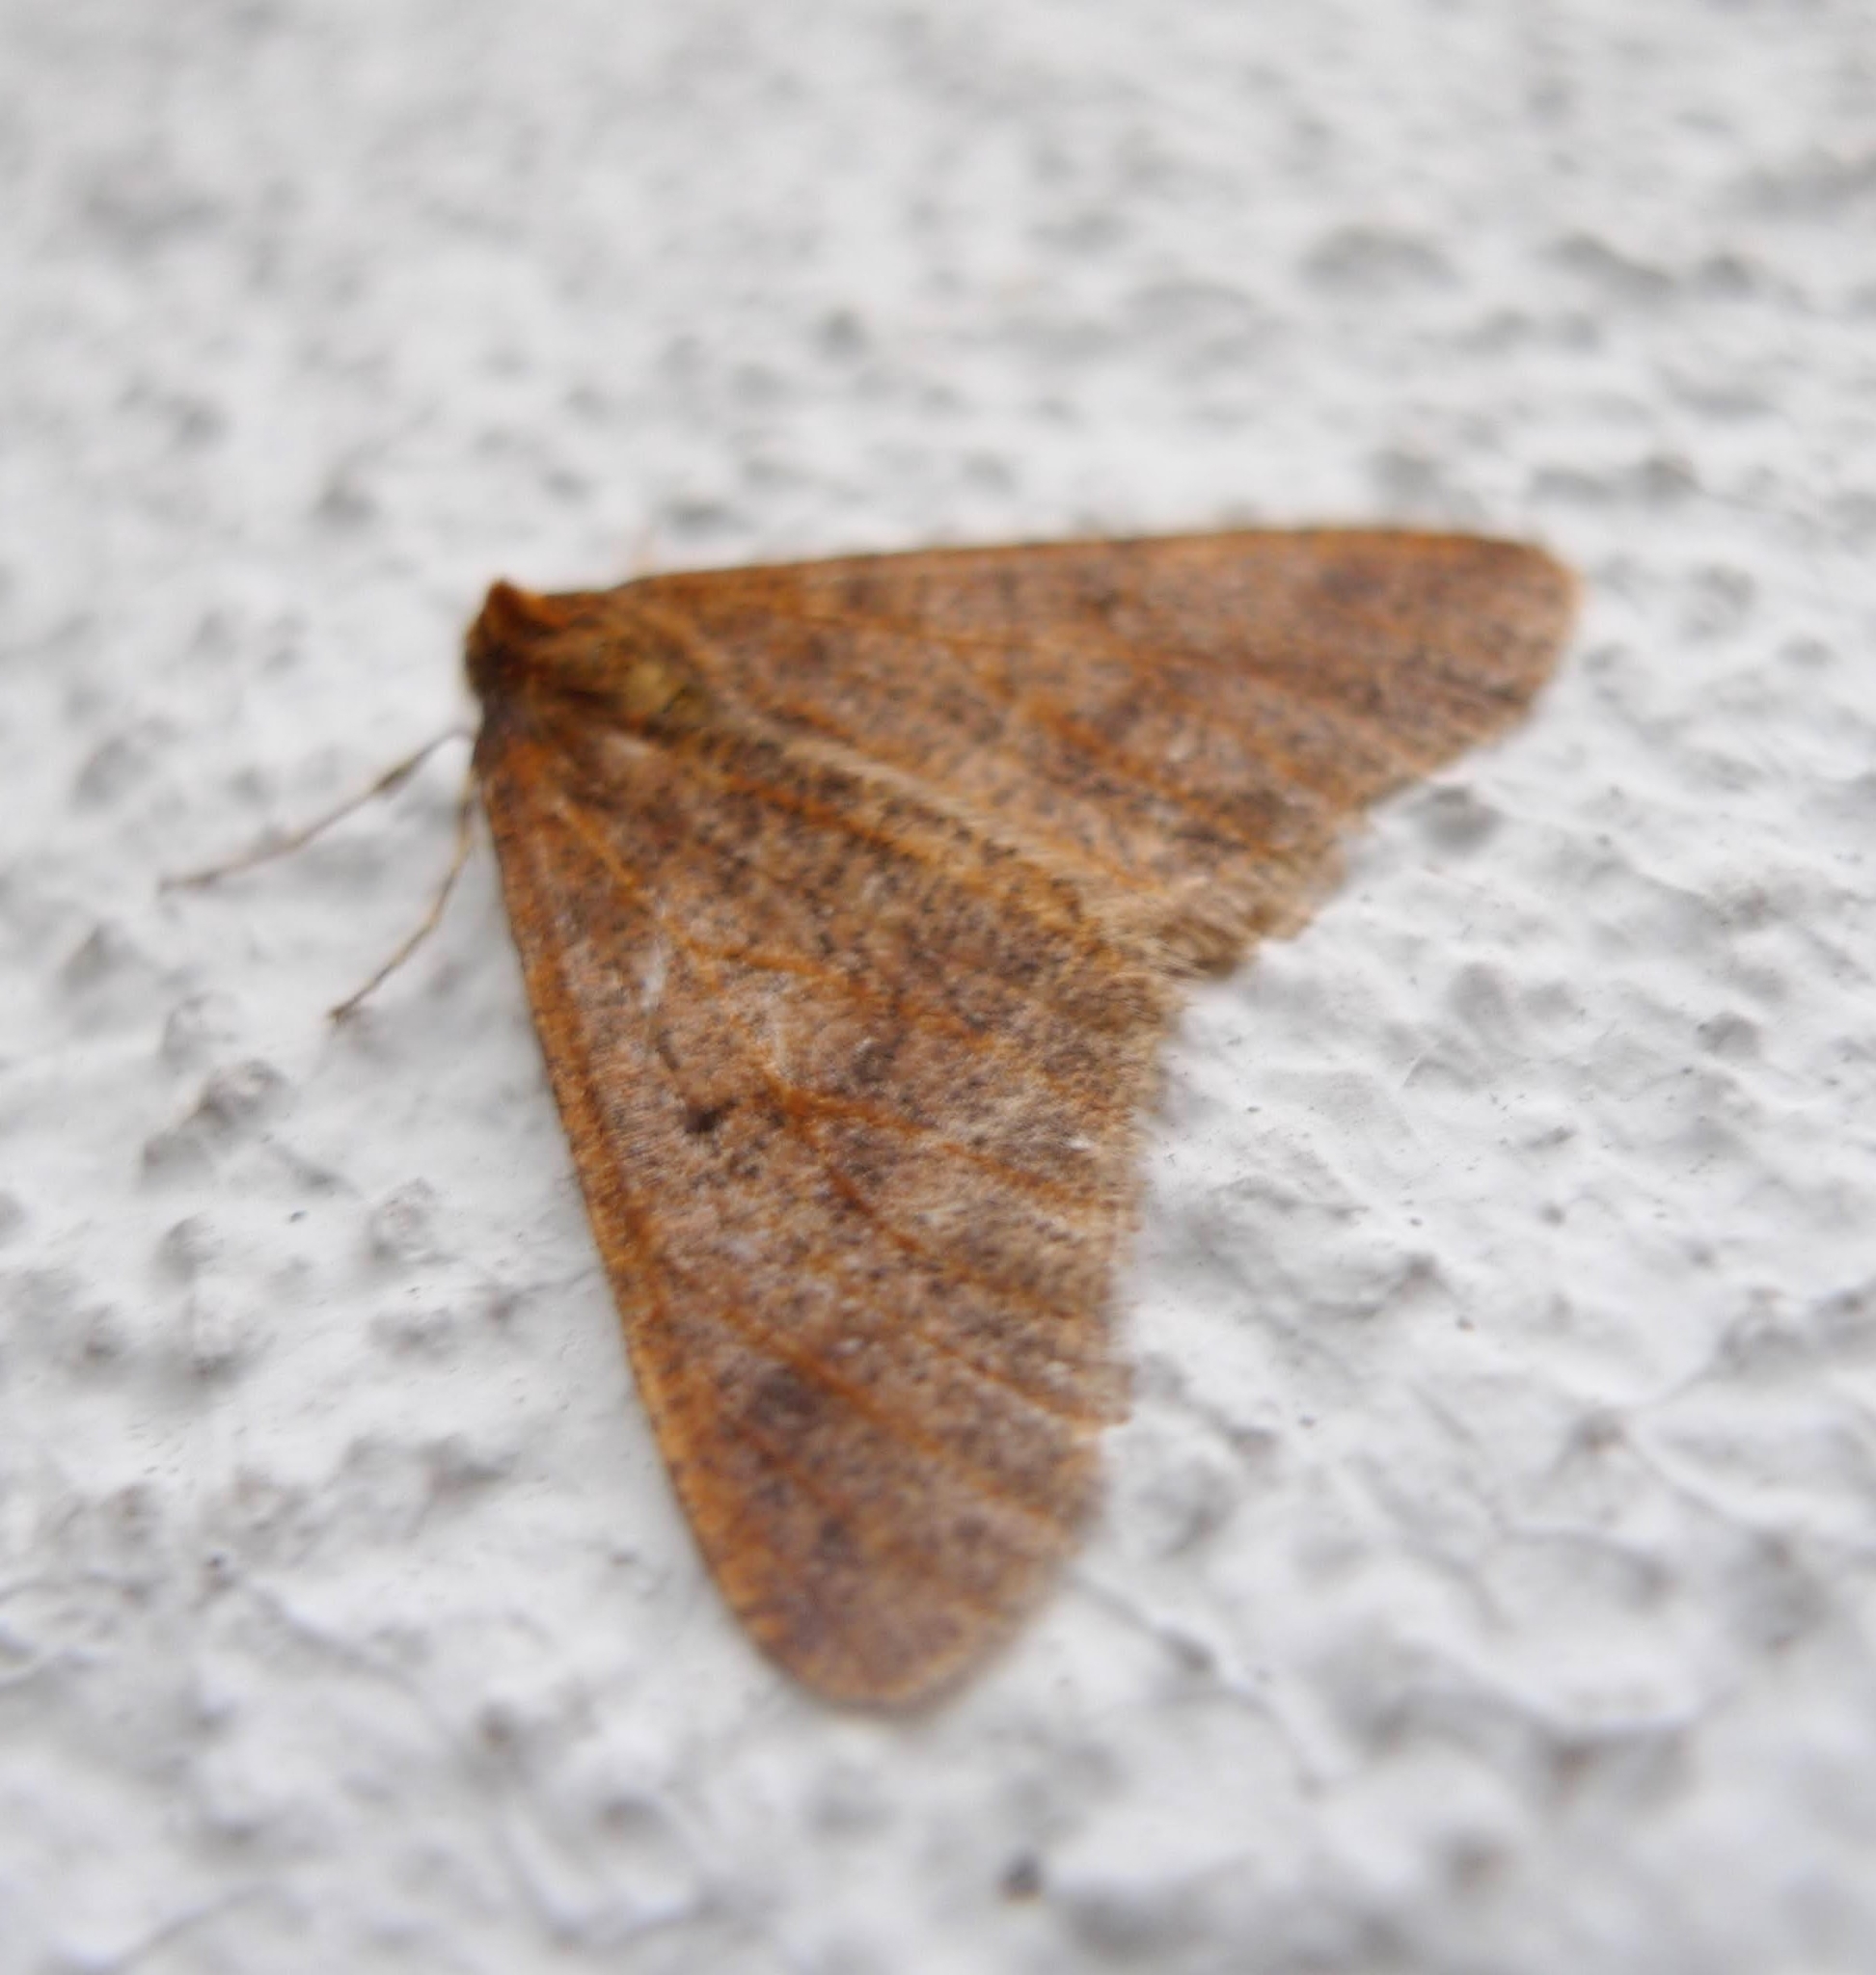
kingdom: Animalia
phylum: Arthropoda
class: Insecta
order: Lepidoptera
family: Geometridae
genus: Erannis
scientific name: Erannis defoliaria
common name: Mottled umber
